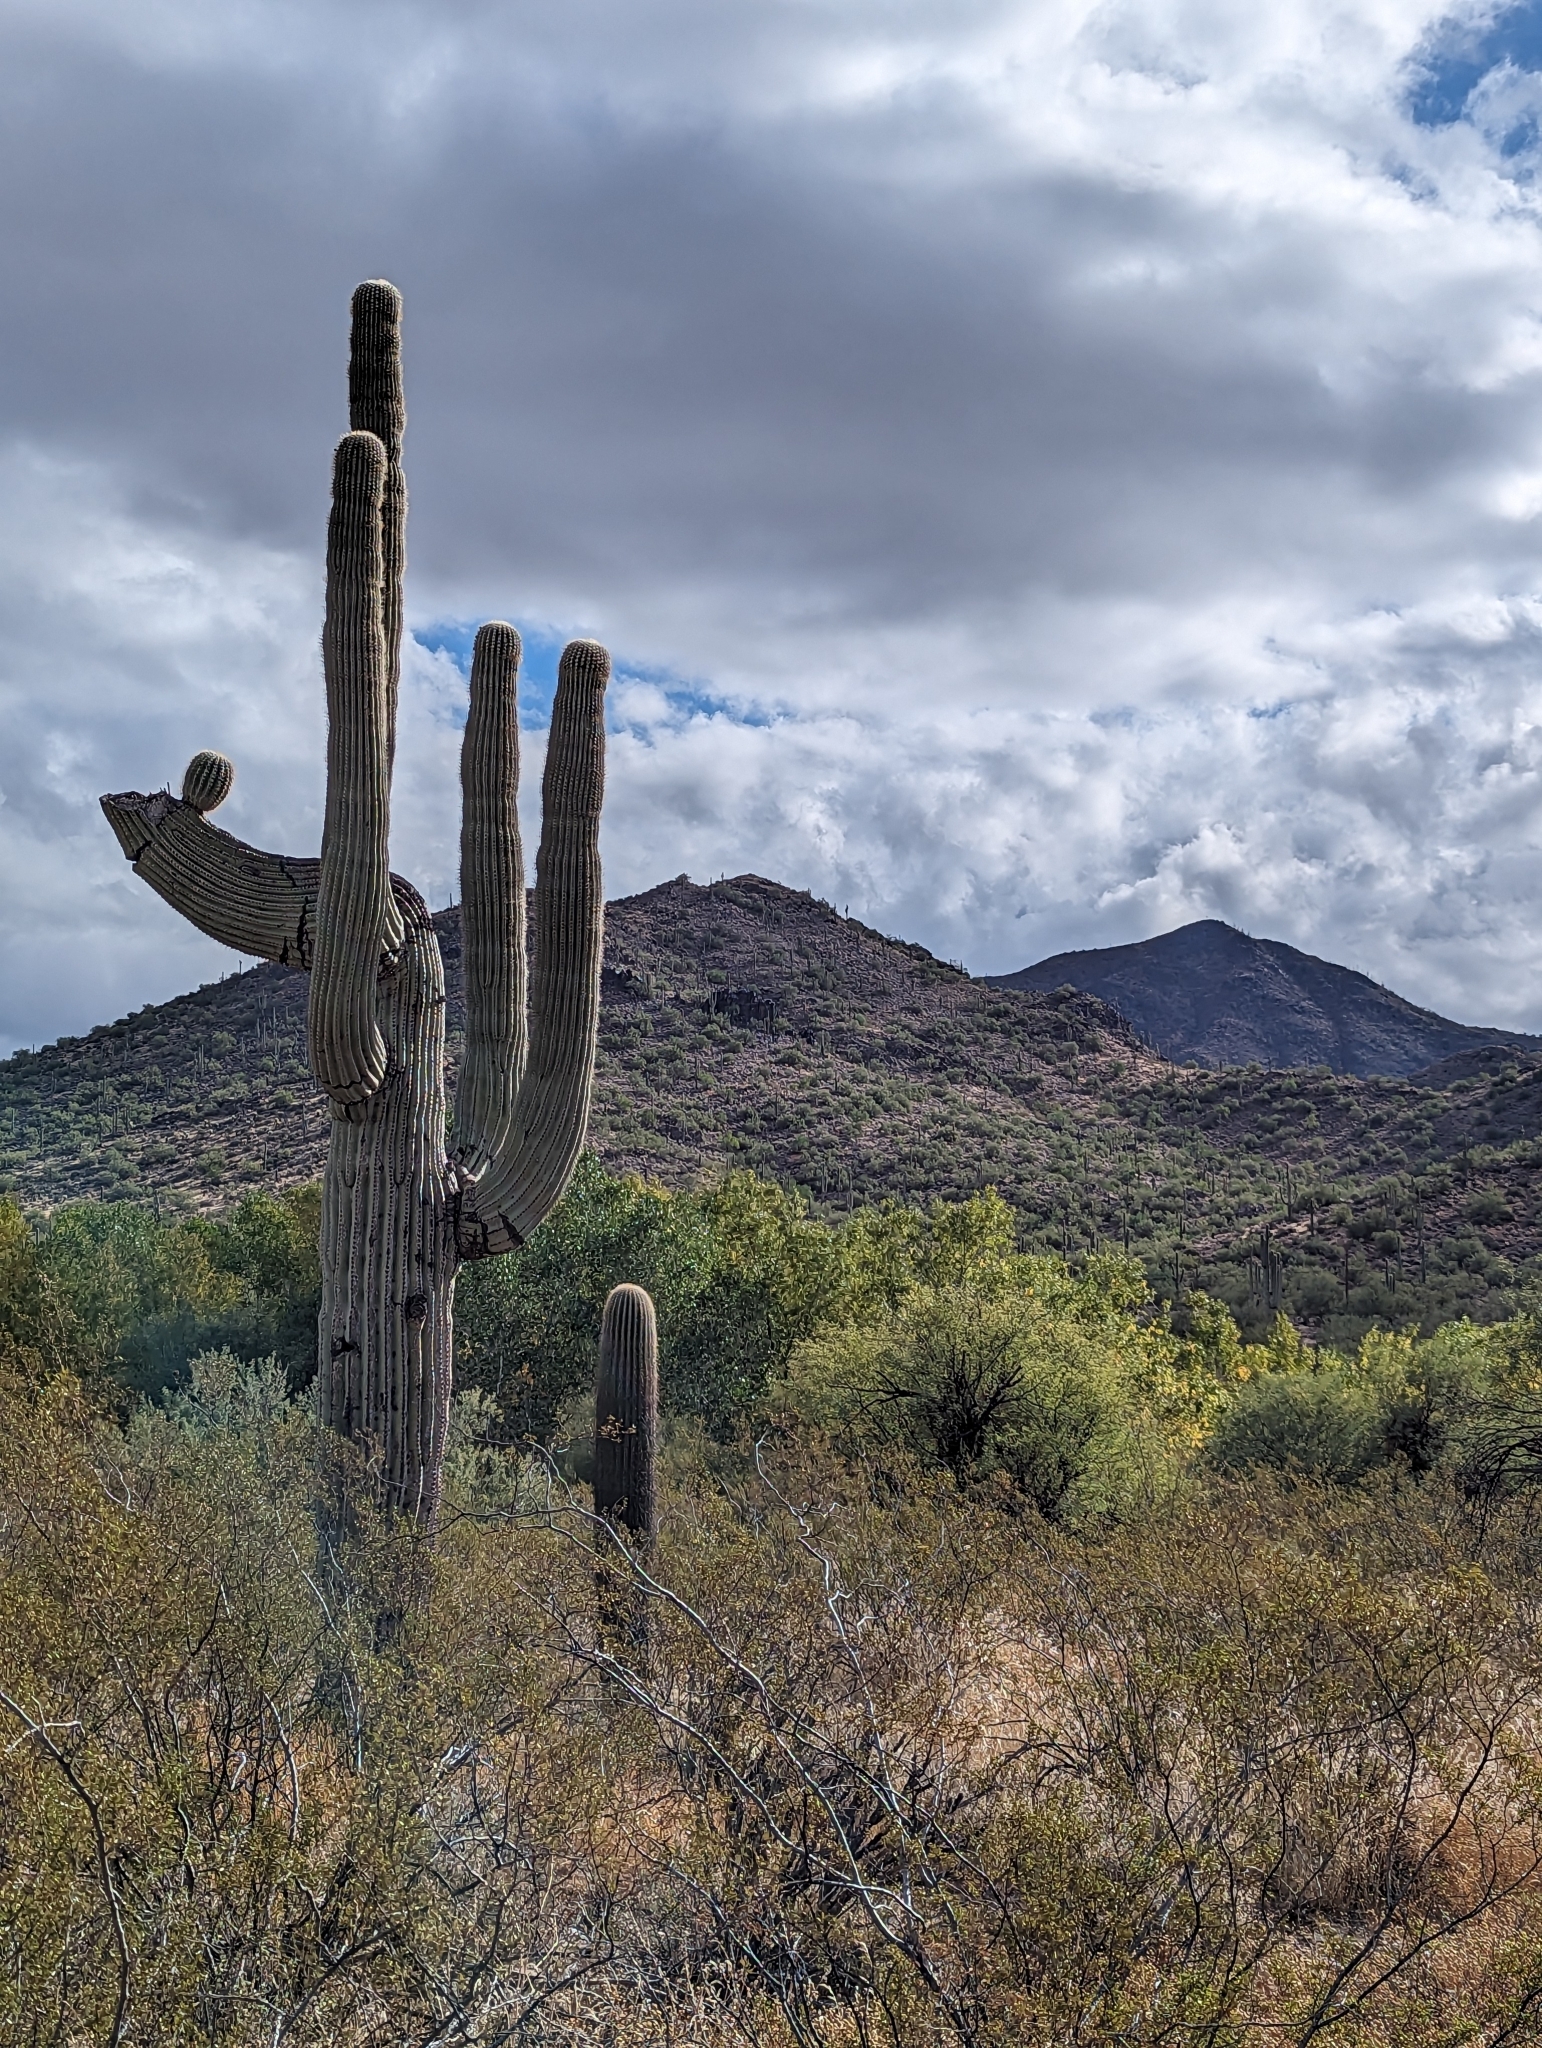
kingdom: Plantae
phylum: Tracheophyta
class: Magnoliopsida
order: Caryophyllales
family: Cactaceae
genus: Carnegiea
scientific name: Carnegiea gigantea
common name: Saguaro
